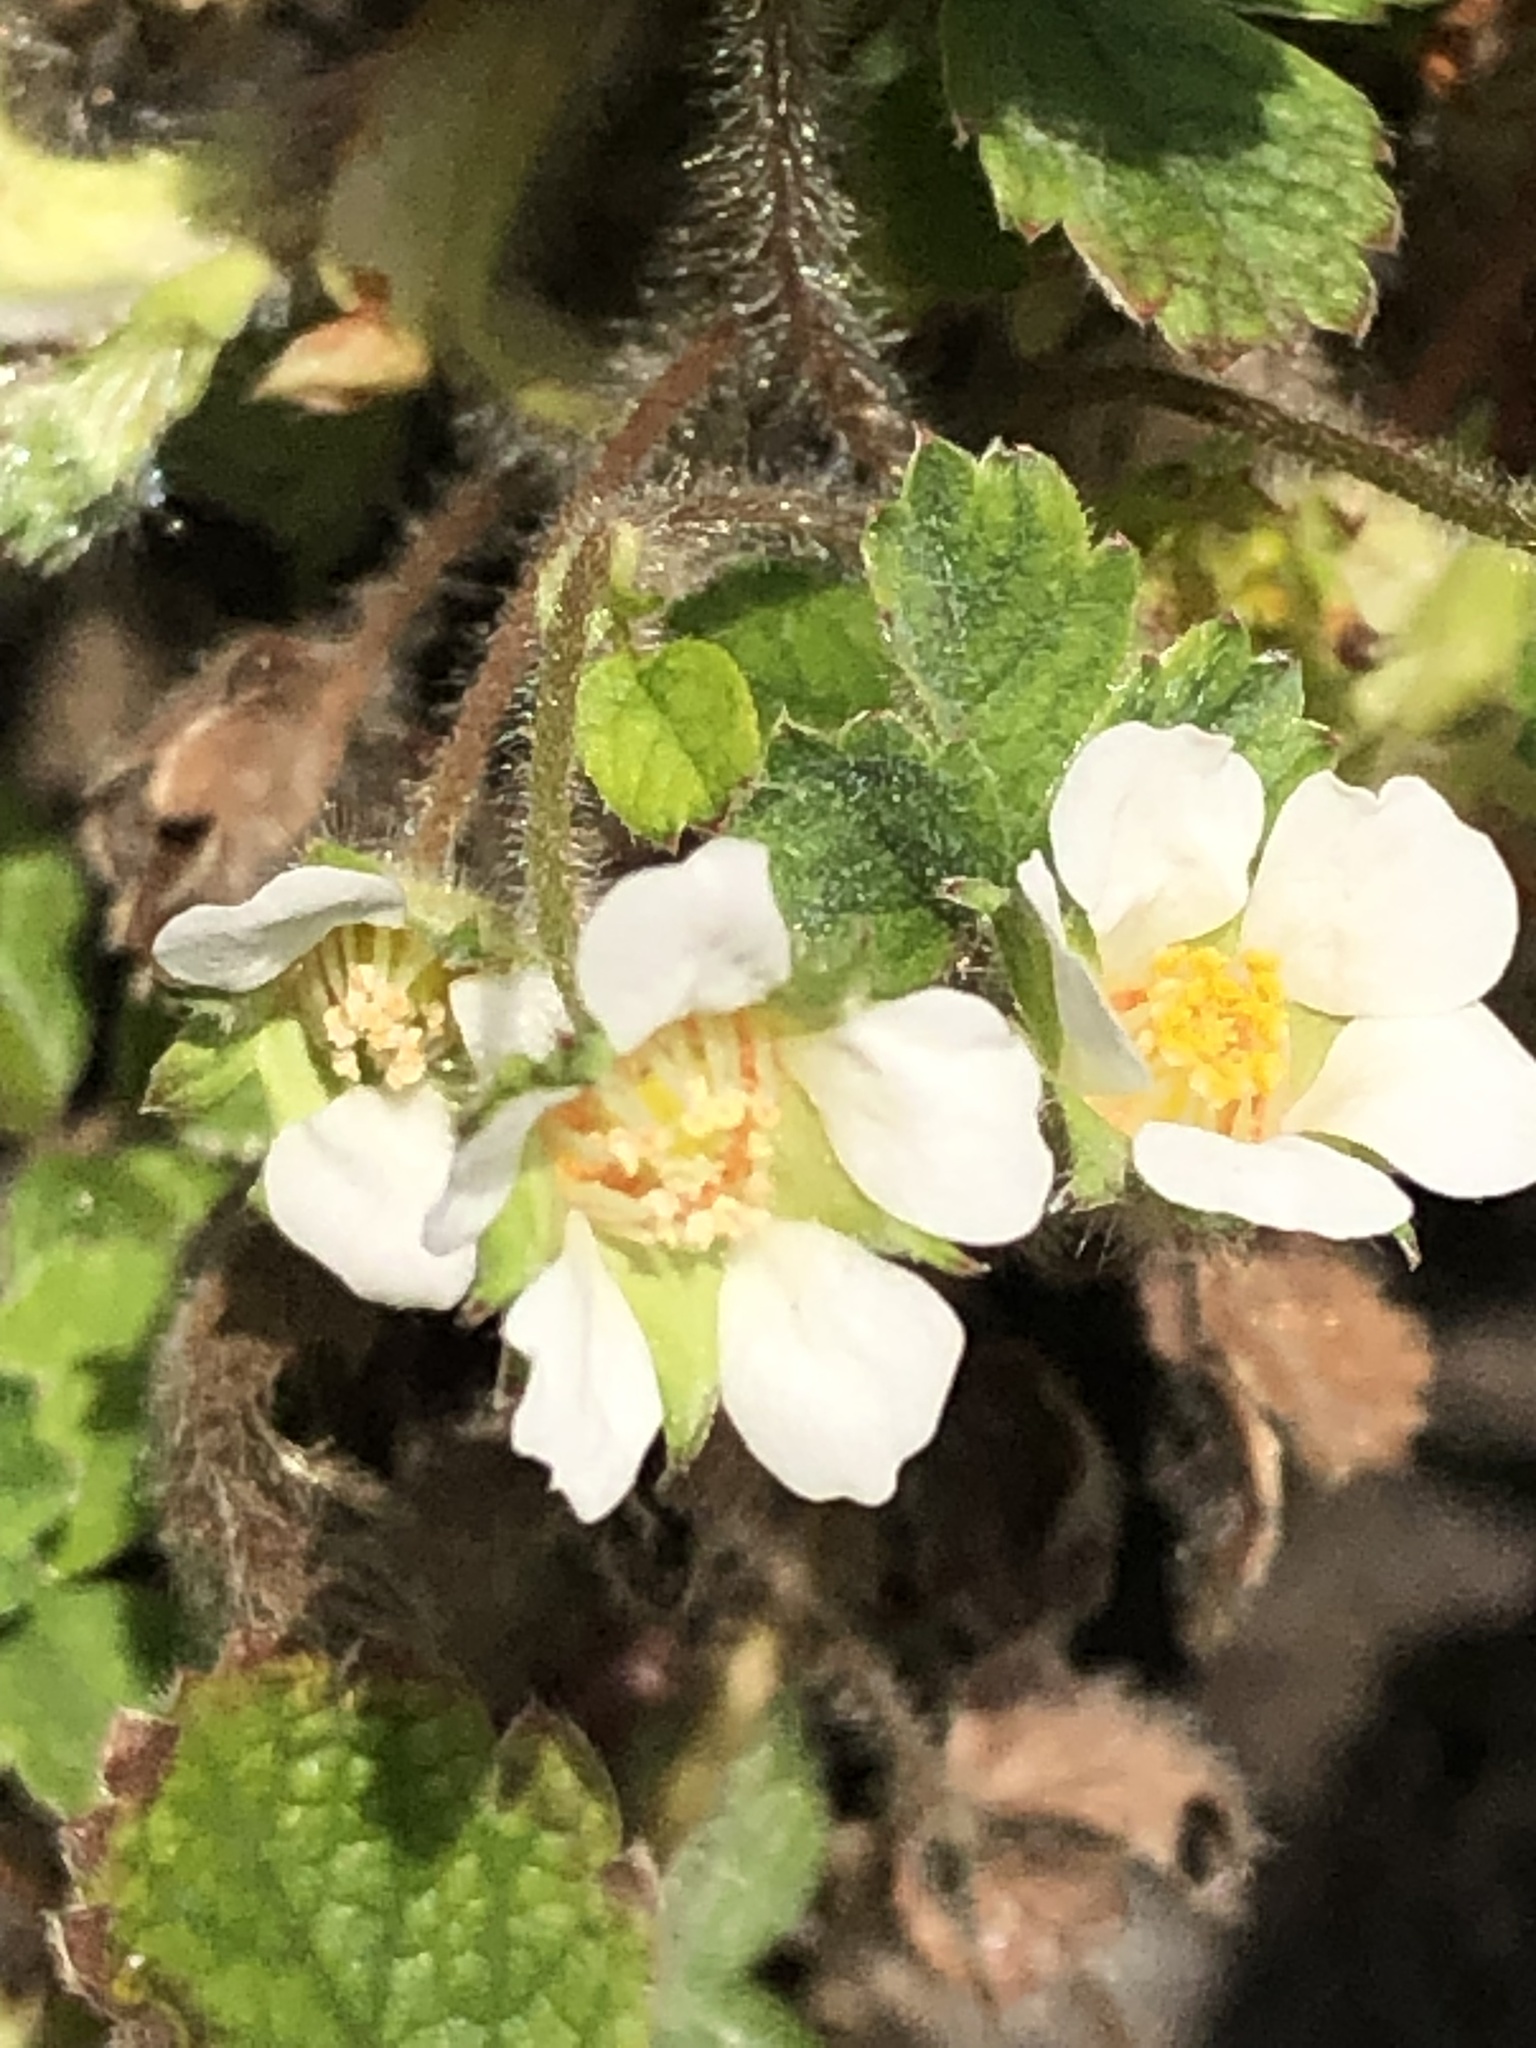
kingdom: Plantae
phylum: Tracheophyta
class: Magnoliopsida
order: Rosales
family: Rosaceae
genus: Potentilla
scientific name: Potentilla sterilis
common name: Barren strawberry
